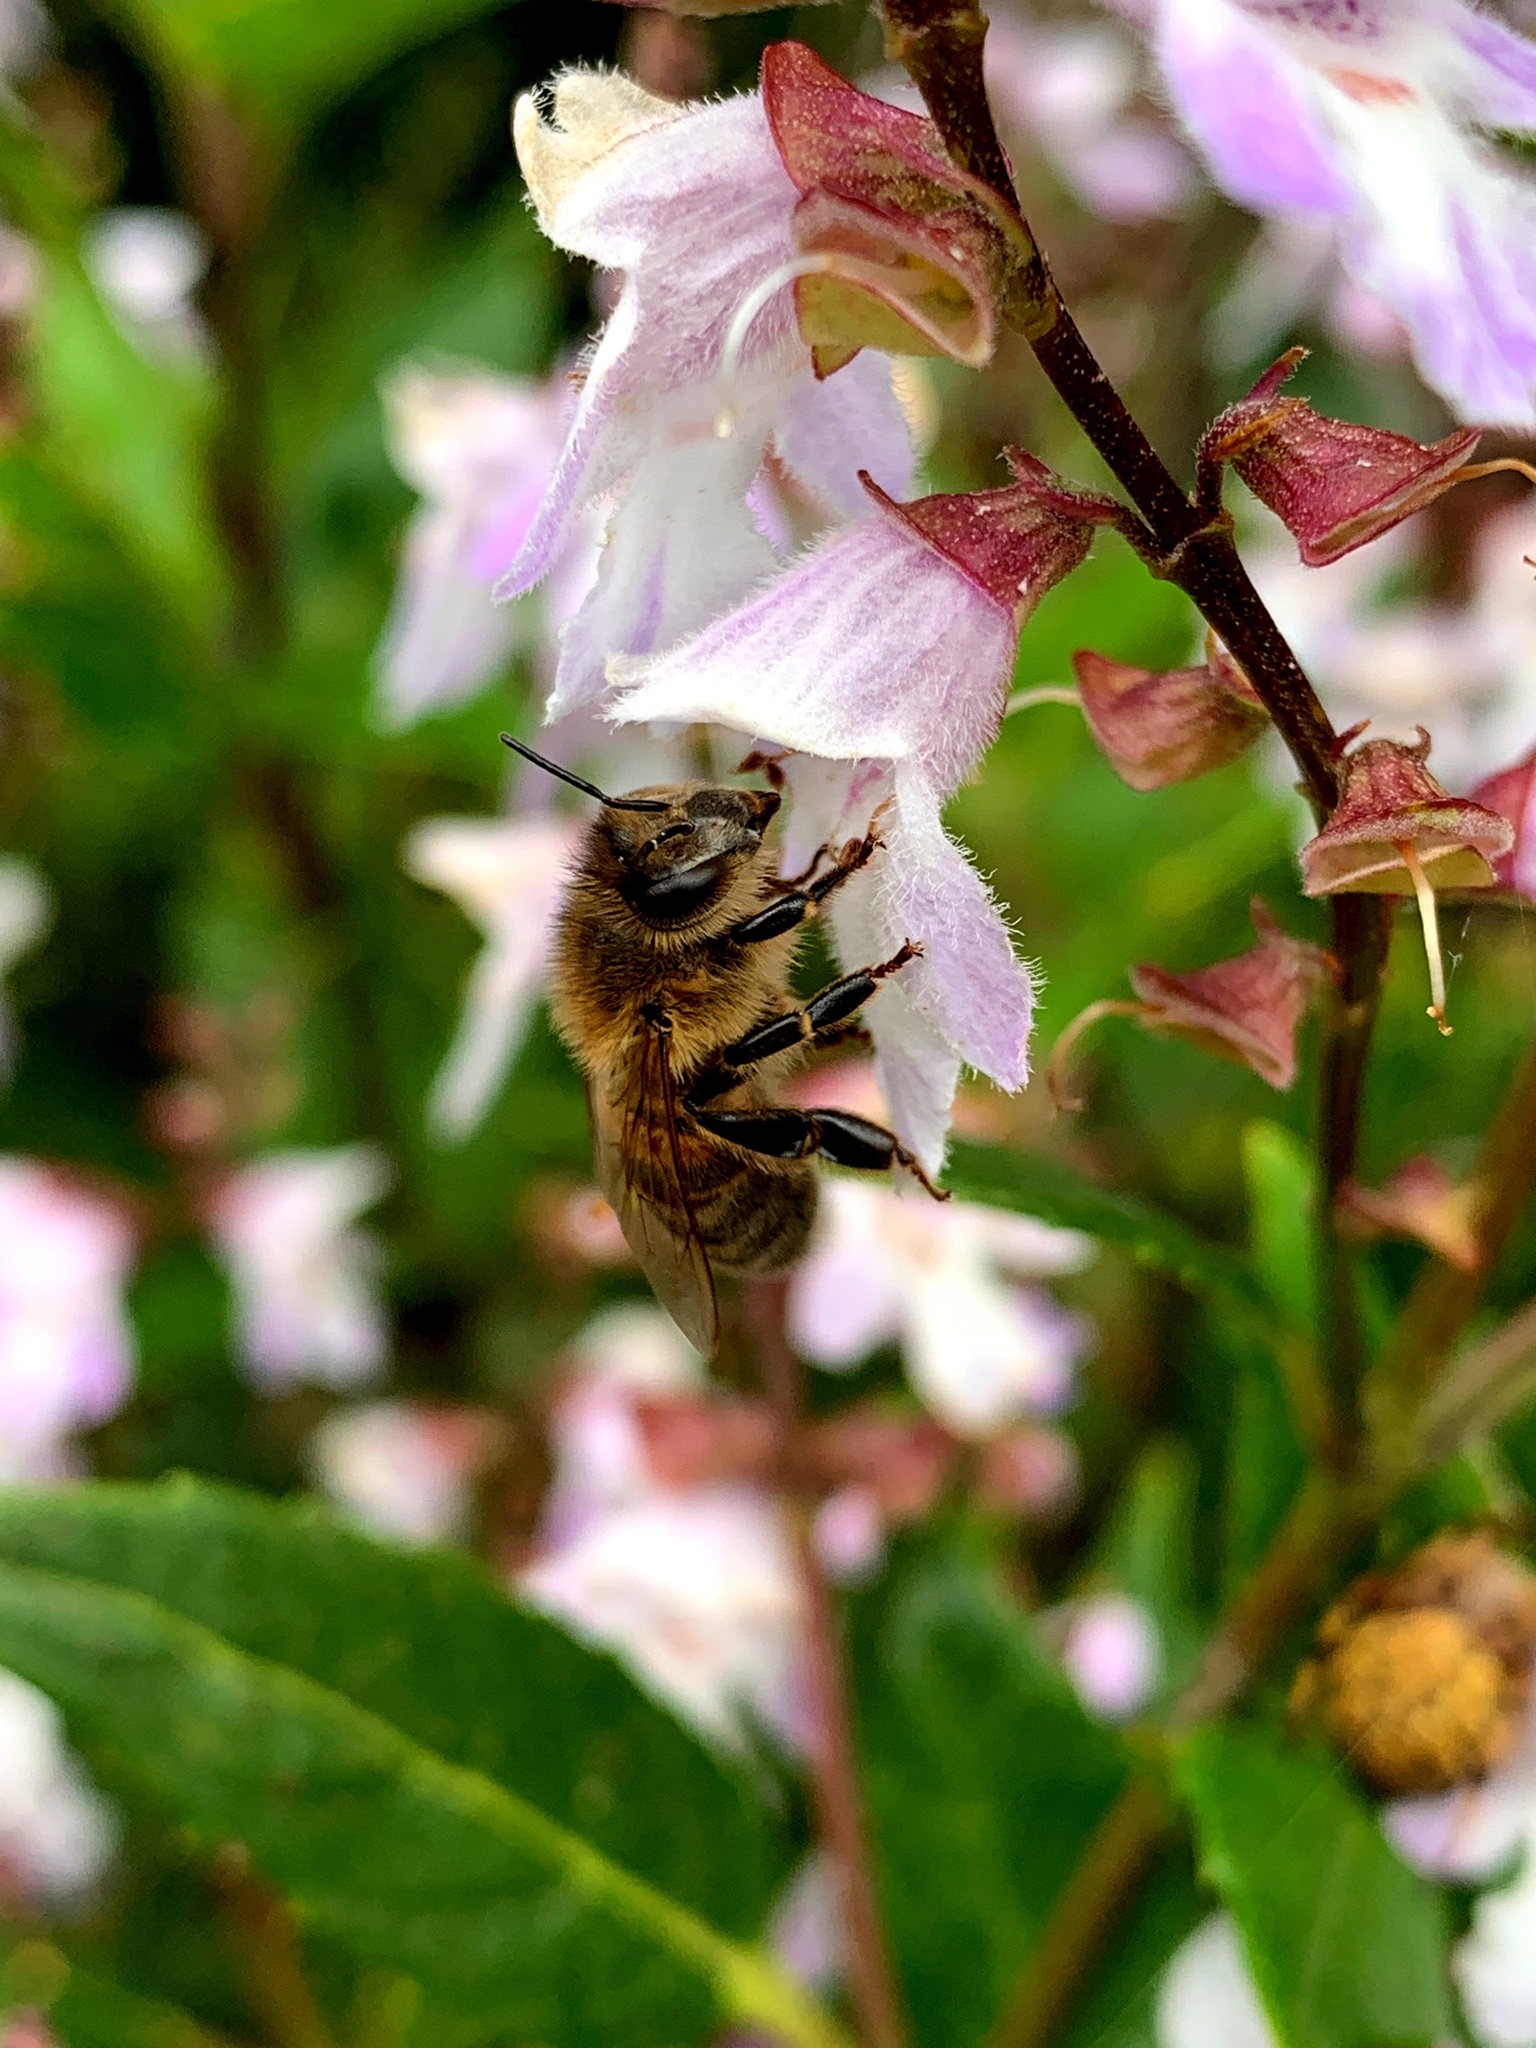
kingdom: Animalia
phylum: Arthropoda
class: Insecta
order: Hymenoptera
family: Apidae
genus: Apis
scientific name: Apis mellifera
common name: Honey bee
